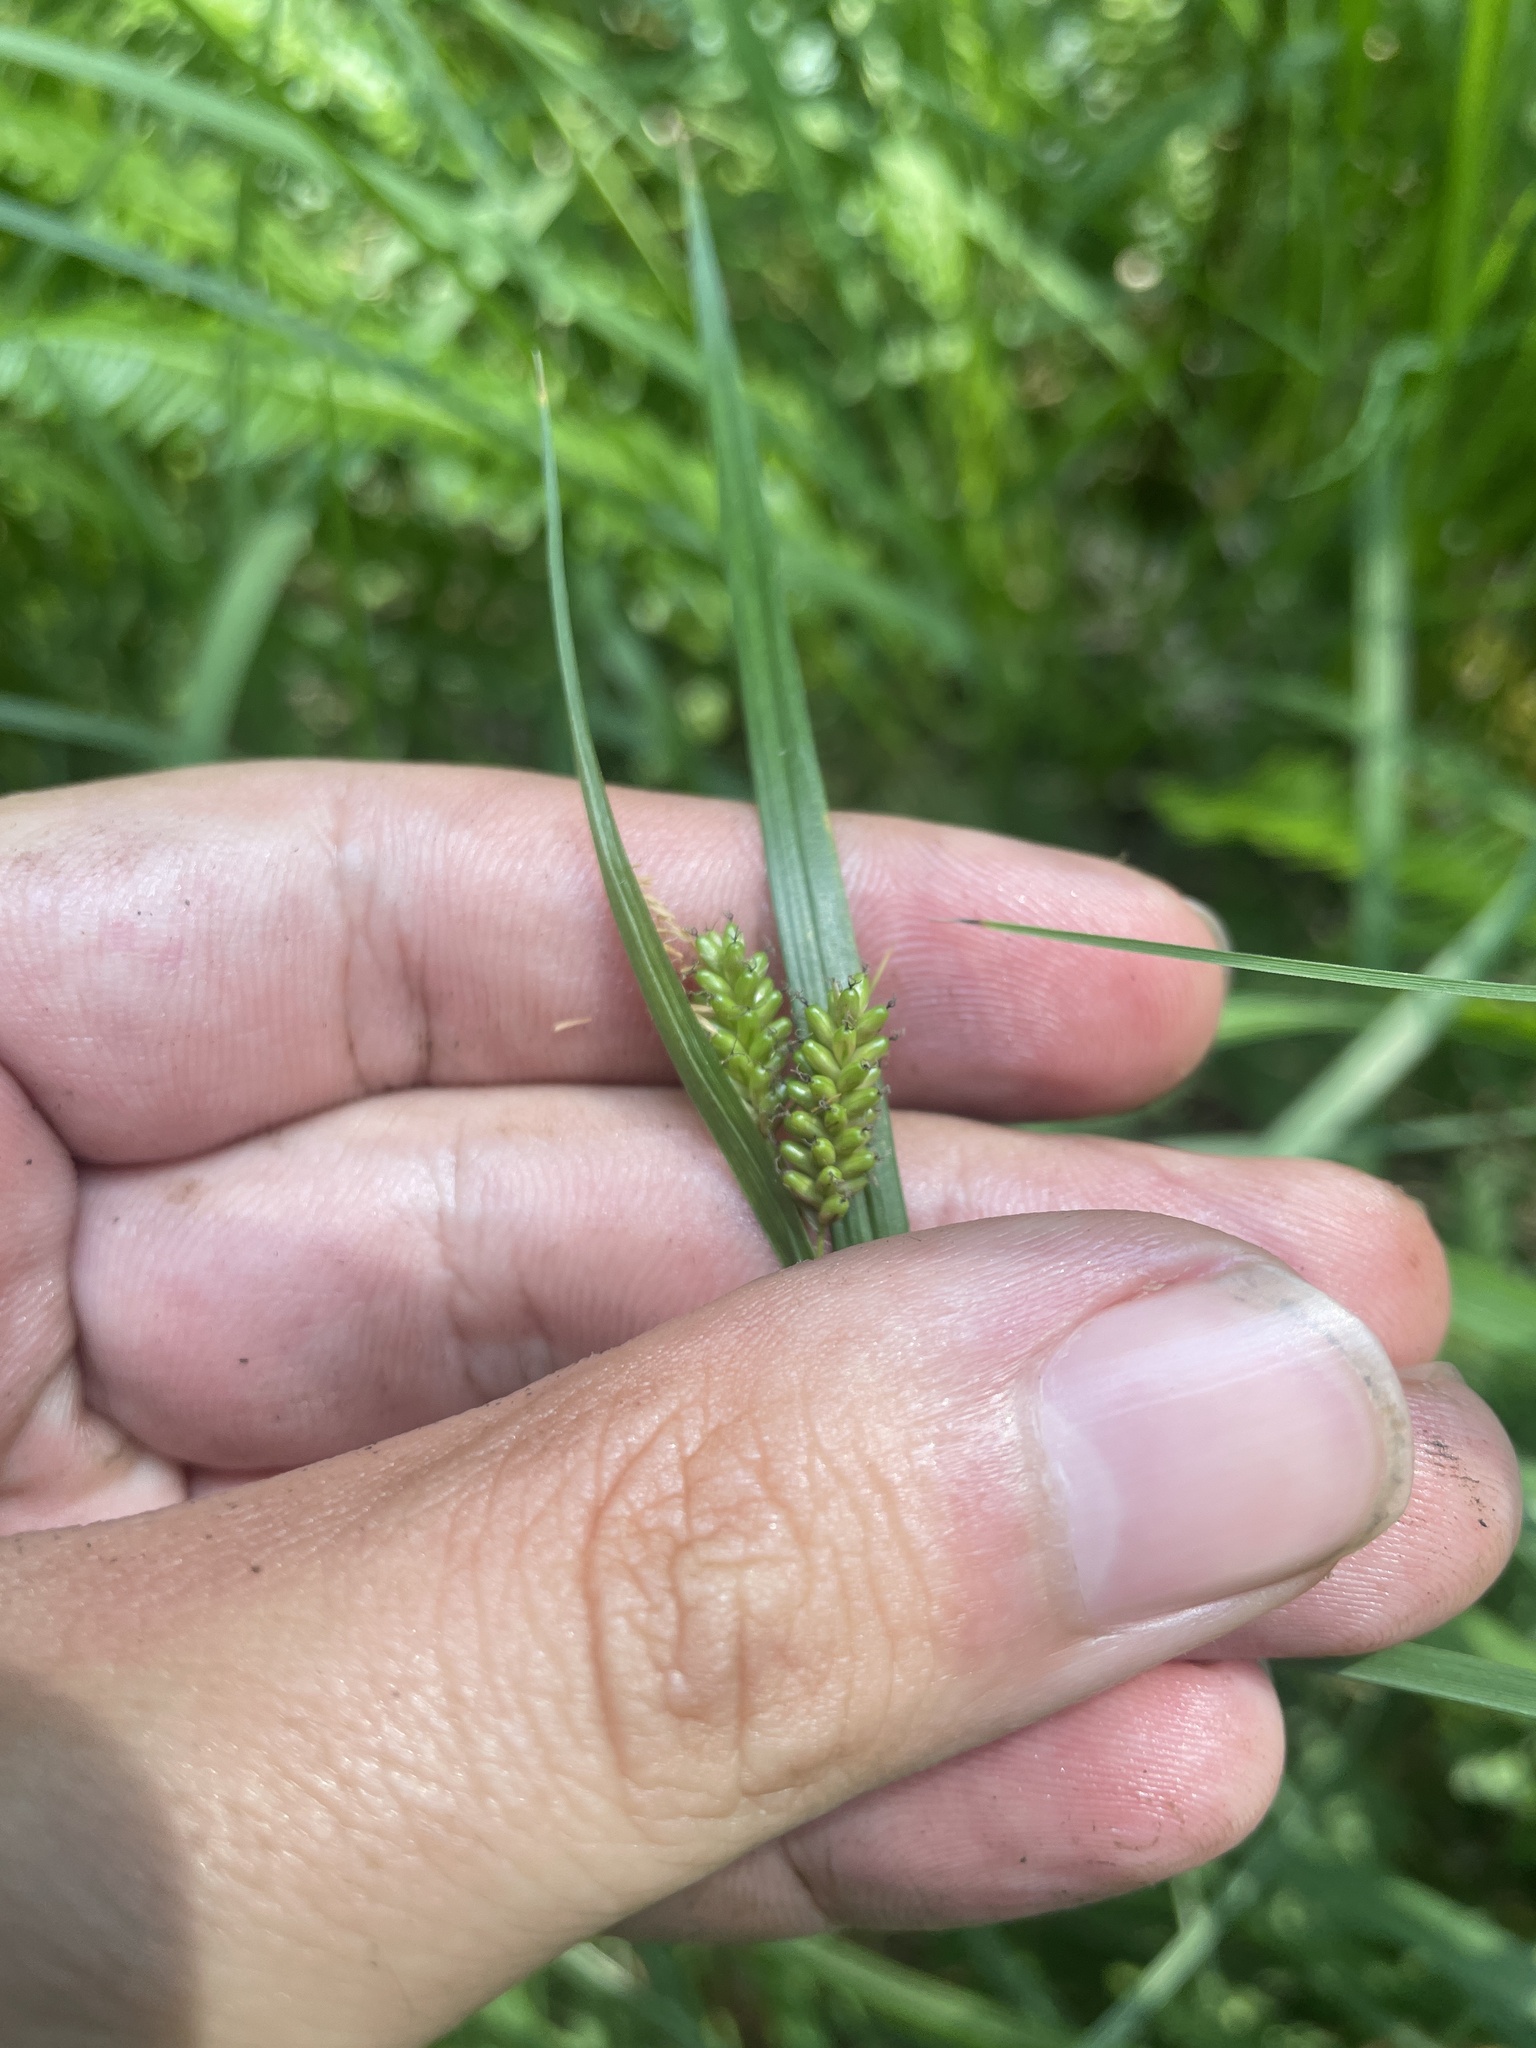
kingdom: Plantae
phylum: Tracheophyta
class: Liliopsida
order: Poales
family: Cyperaceae
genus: Carex
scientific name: Carex pallescens
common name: Pale sedge
